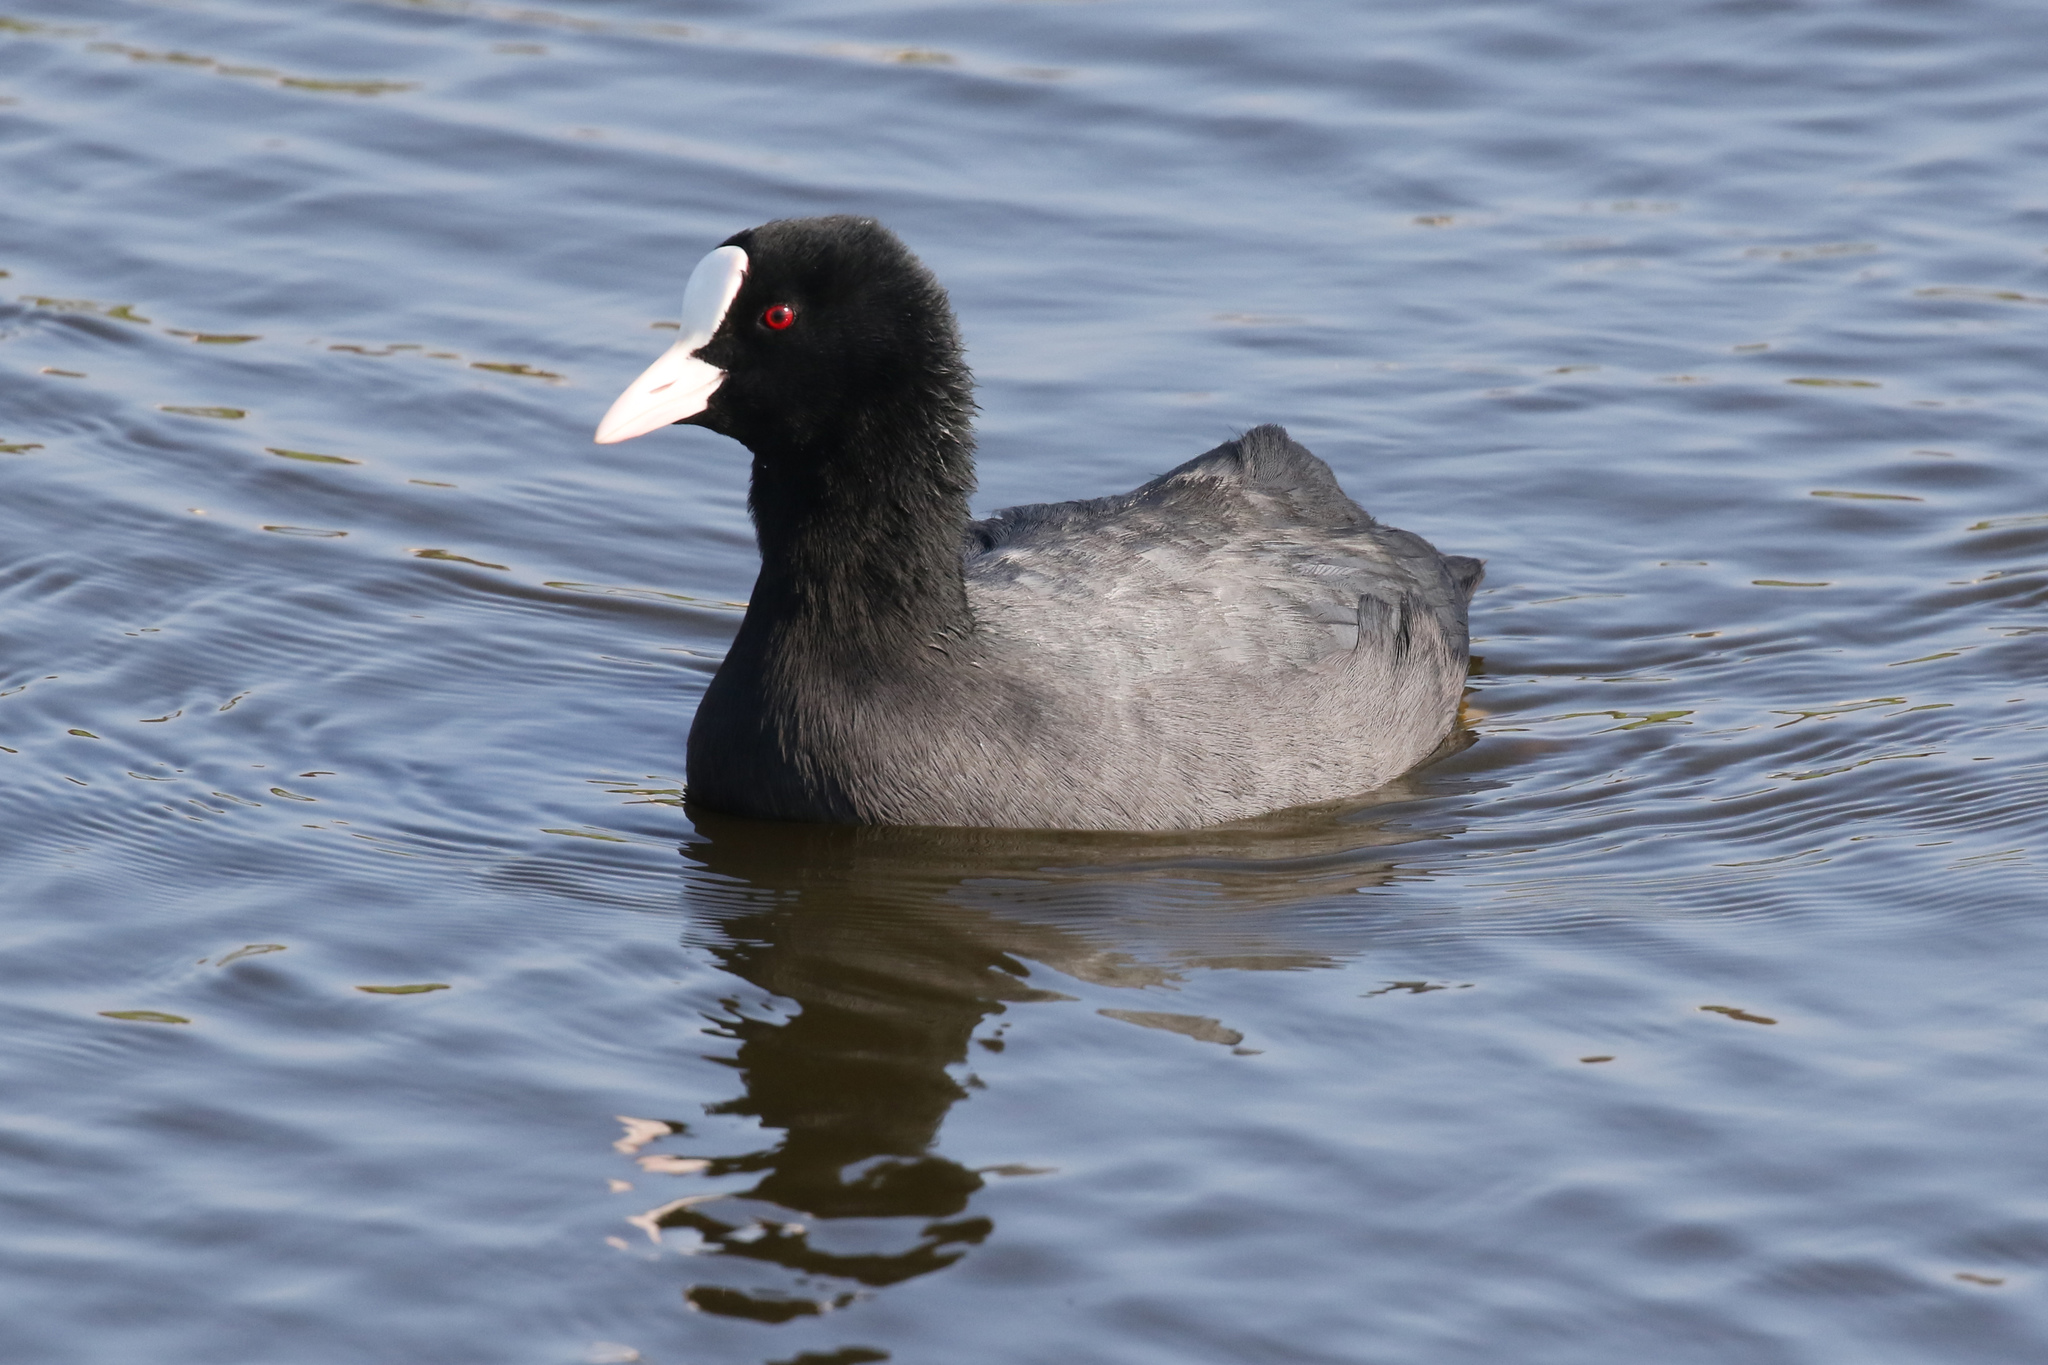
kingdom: Animalia
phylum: Chordata
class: Aves
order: Gruiformes
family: Rallidae
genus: Fulica
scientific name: Fulica atra
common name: Eurasian coot
